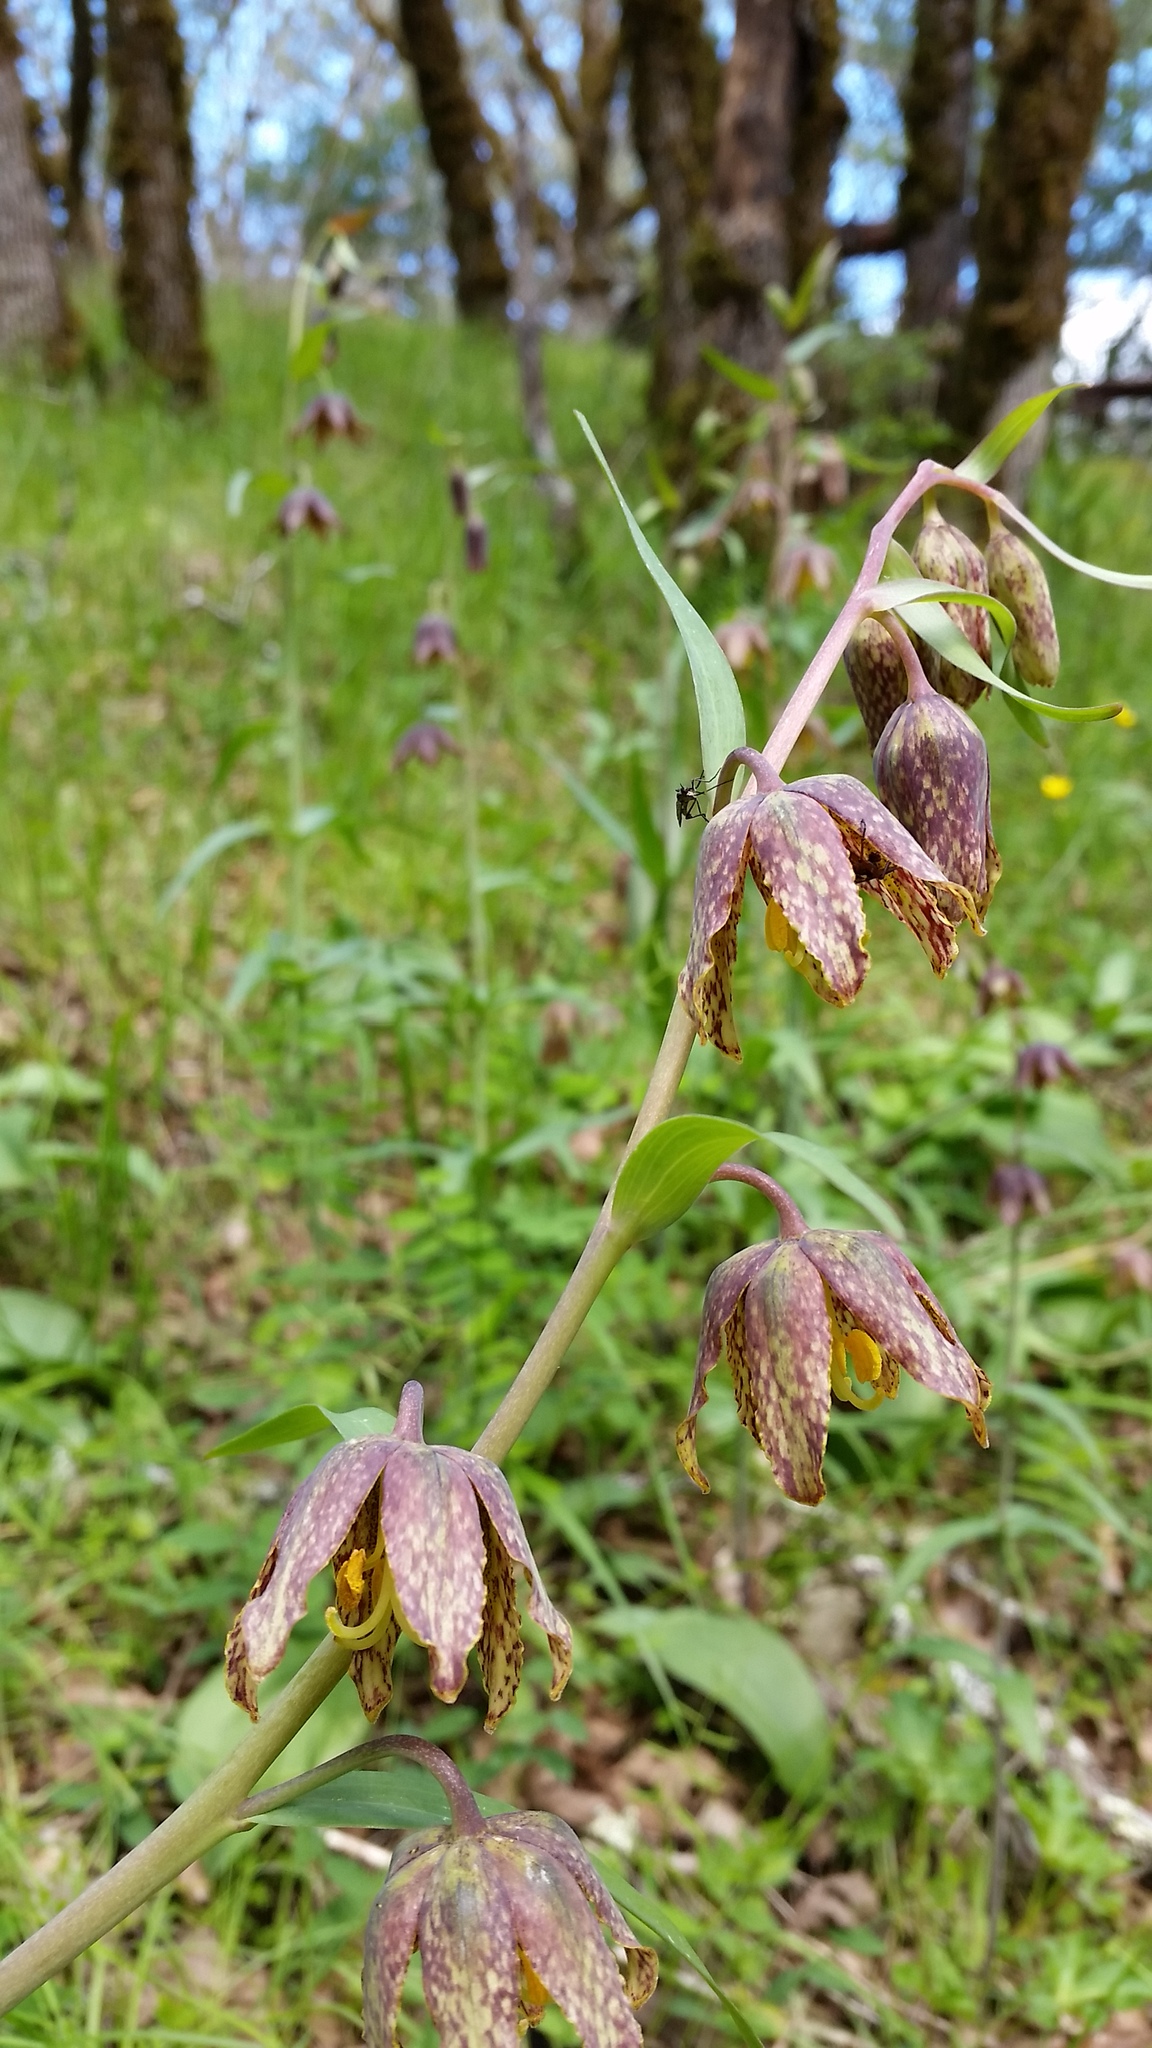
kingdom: Plantae
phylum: Tracheophyta
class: Liliopsida
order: Liliales
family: Liliaceae
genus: Fritillaria
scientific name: Fritillaria affinis
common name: Ojai fritillary
